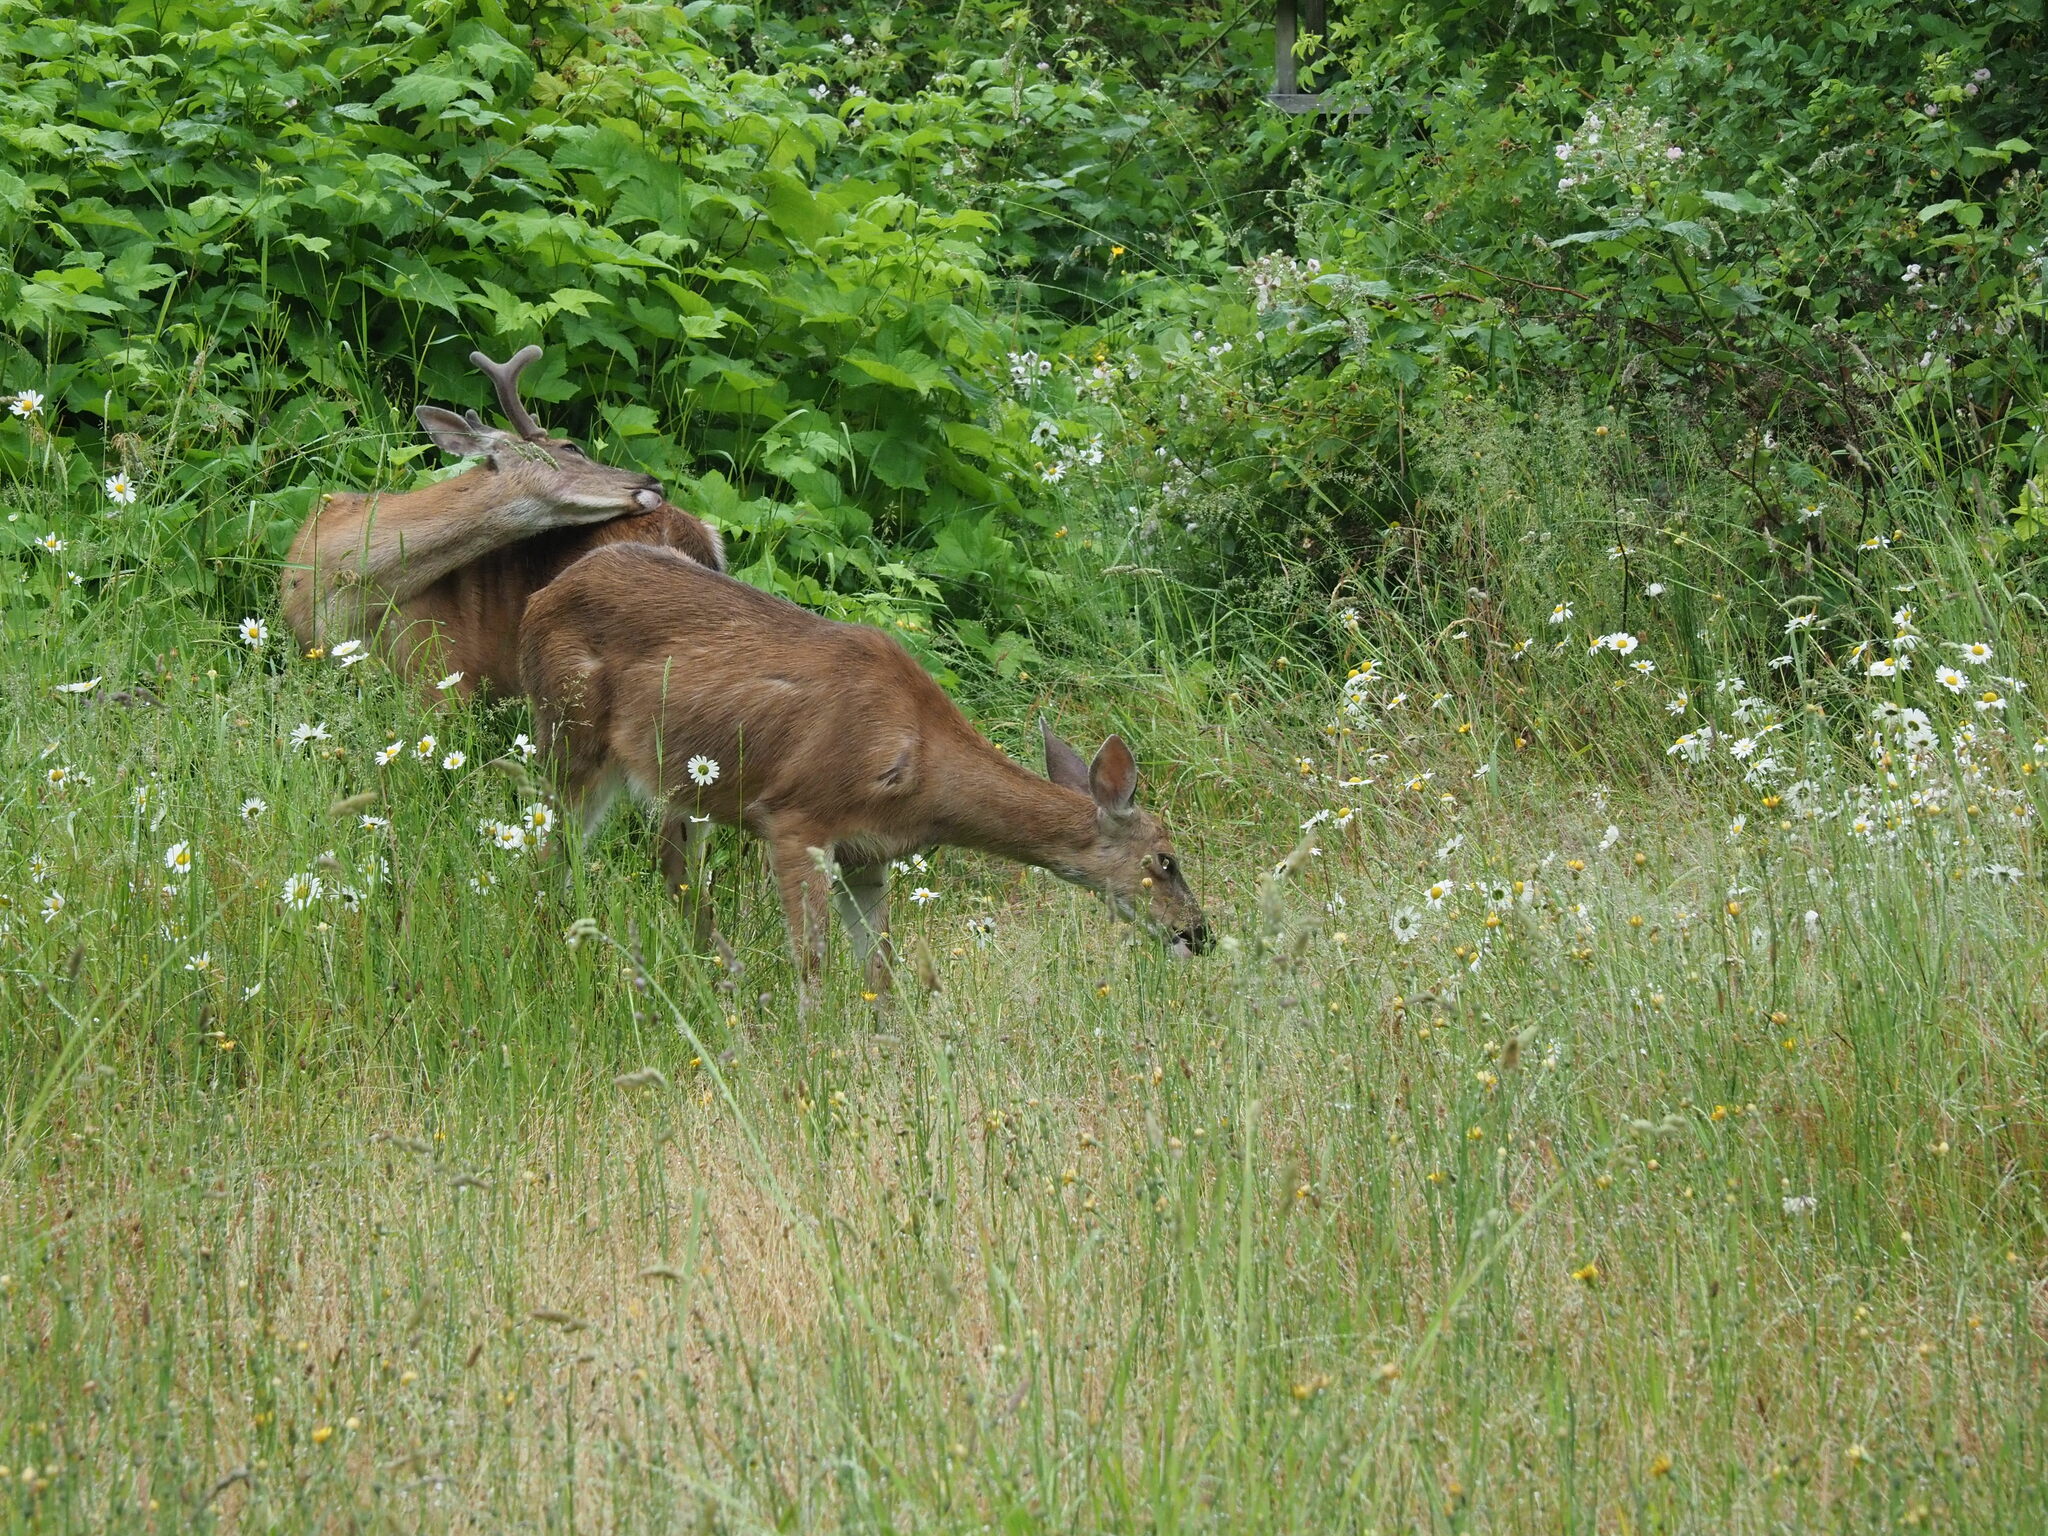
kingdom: Animalia
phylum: Chordata
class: Mammalia
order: Artiodactyla
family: Cervidae
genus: Odocoileus
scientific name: Odocoileus hemionus
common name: Mule deer
